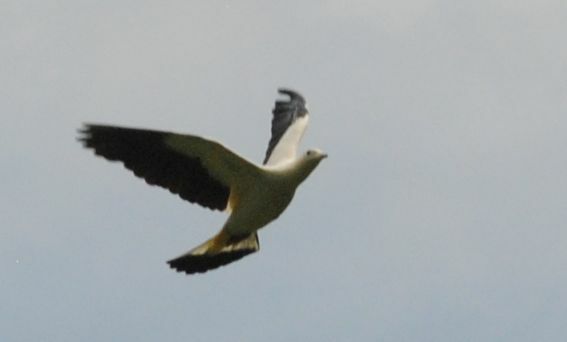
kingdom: Animalia
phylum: Chordata
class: Aves
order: Columbiformes
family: Columbidae
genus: Ducula
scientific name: Ducula bicolor
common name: Pied imperial pigeon
